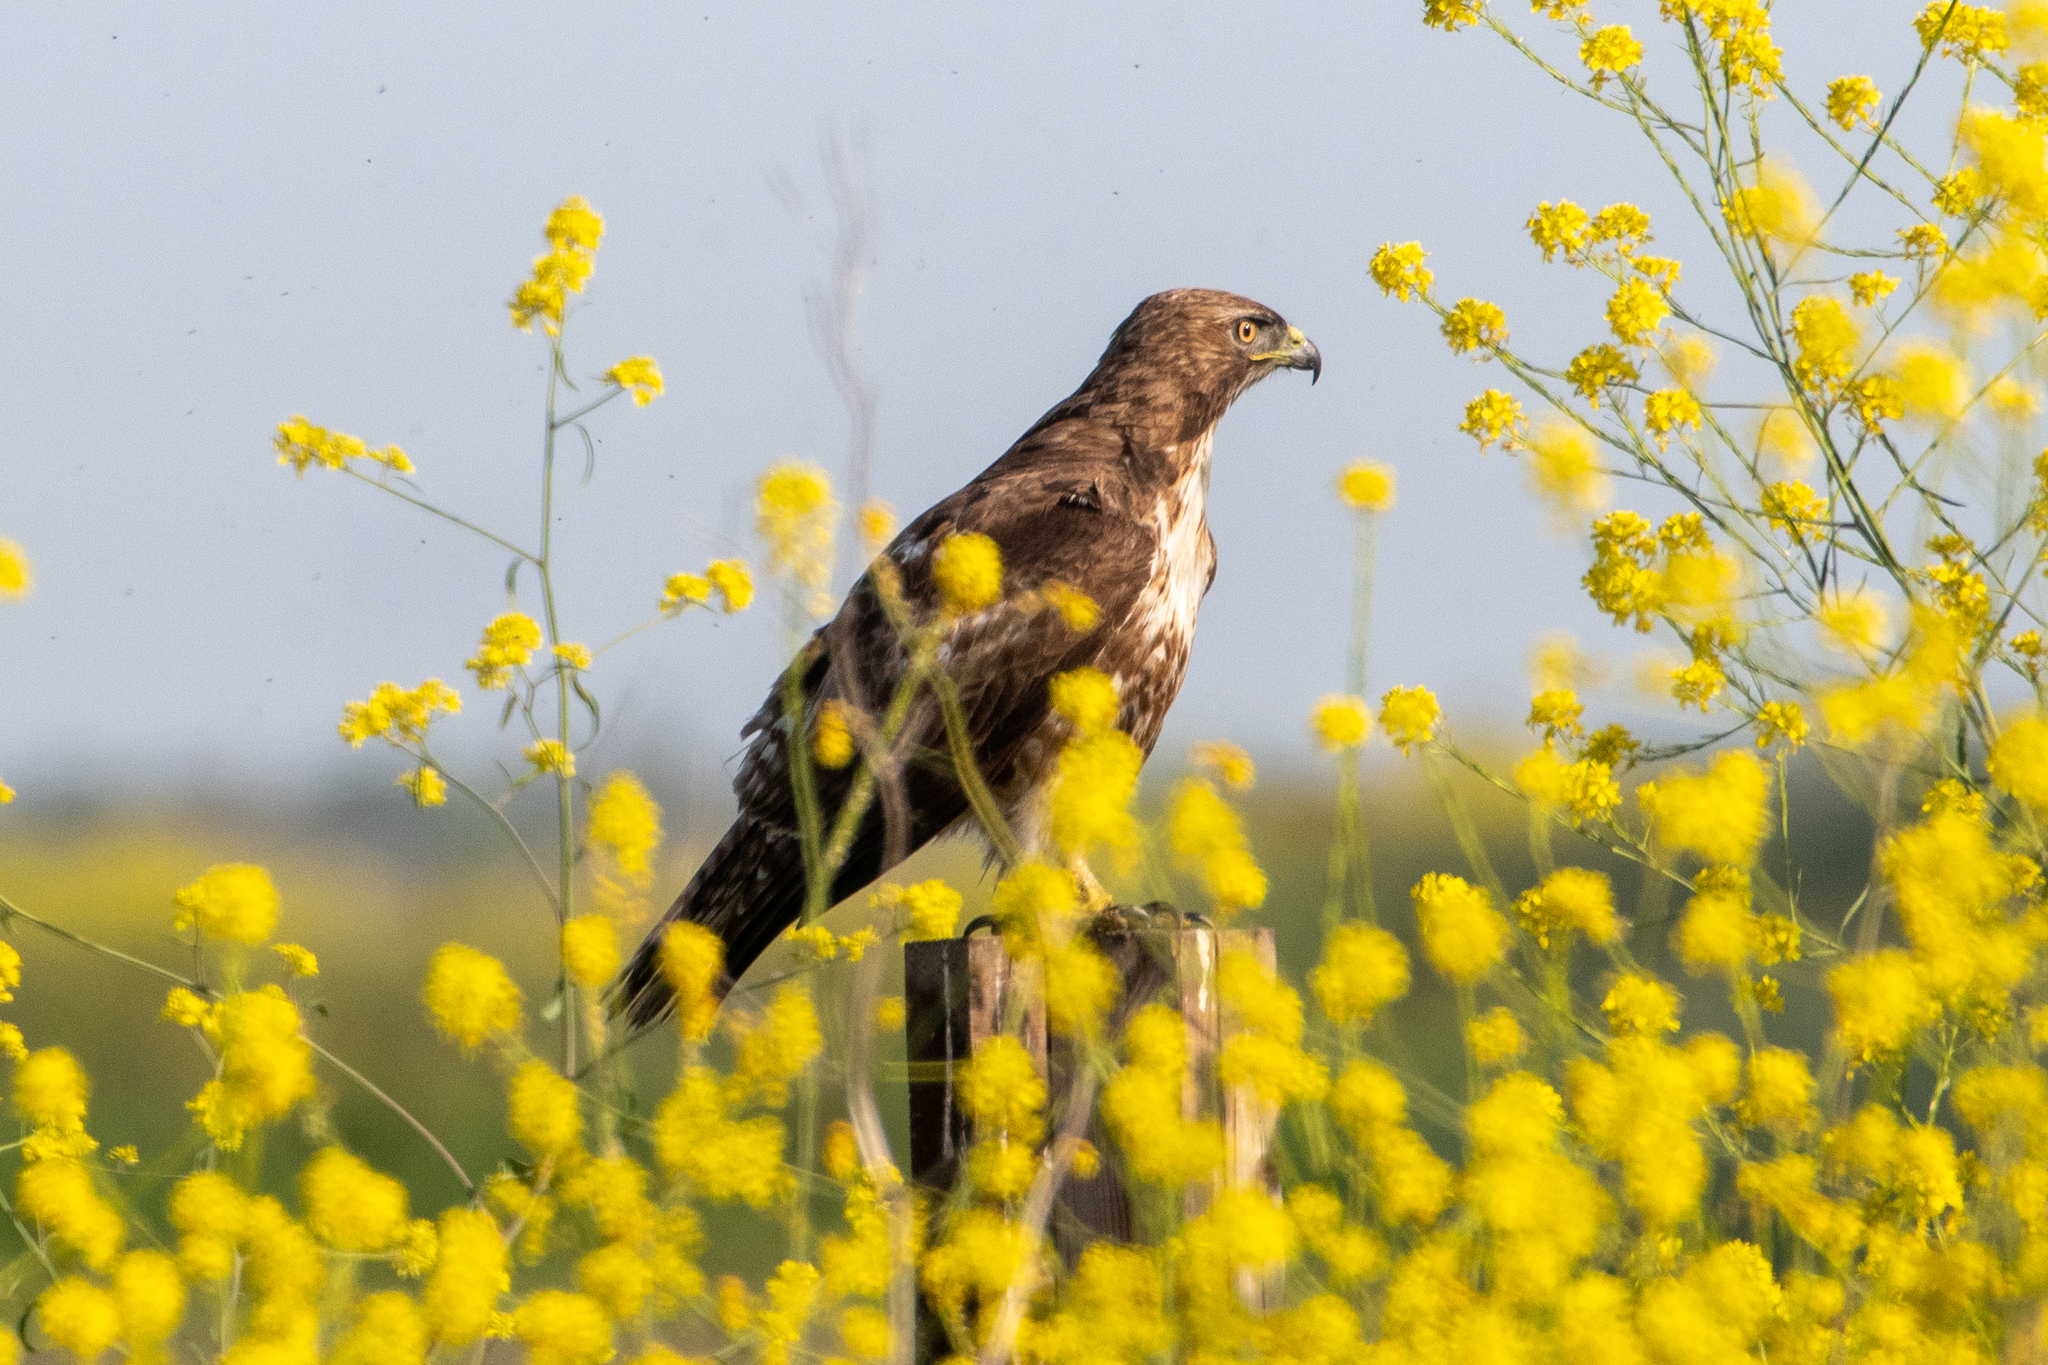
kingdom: Animalia
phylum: Chordata
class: Aves
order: Accipitriformes
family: Accipitridae
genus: Buteo
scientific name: Buteo jamaicensis
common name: Red-tailed hawk
